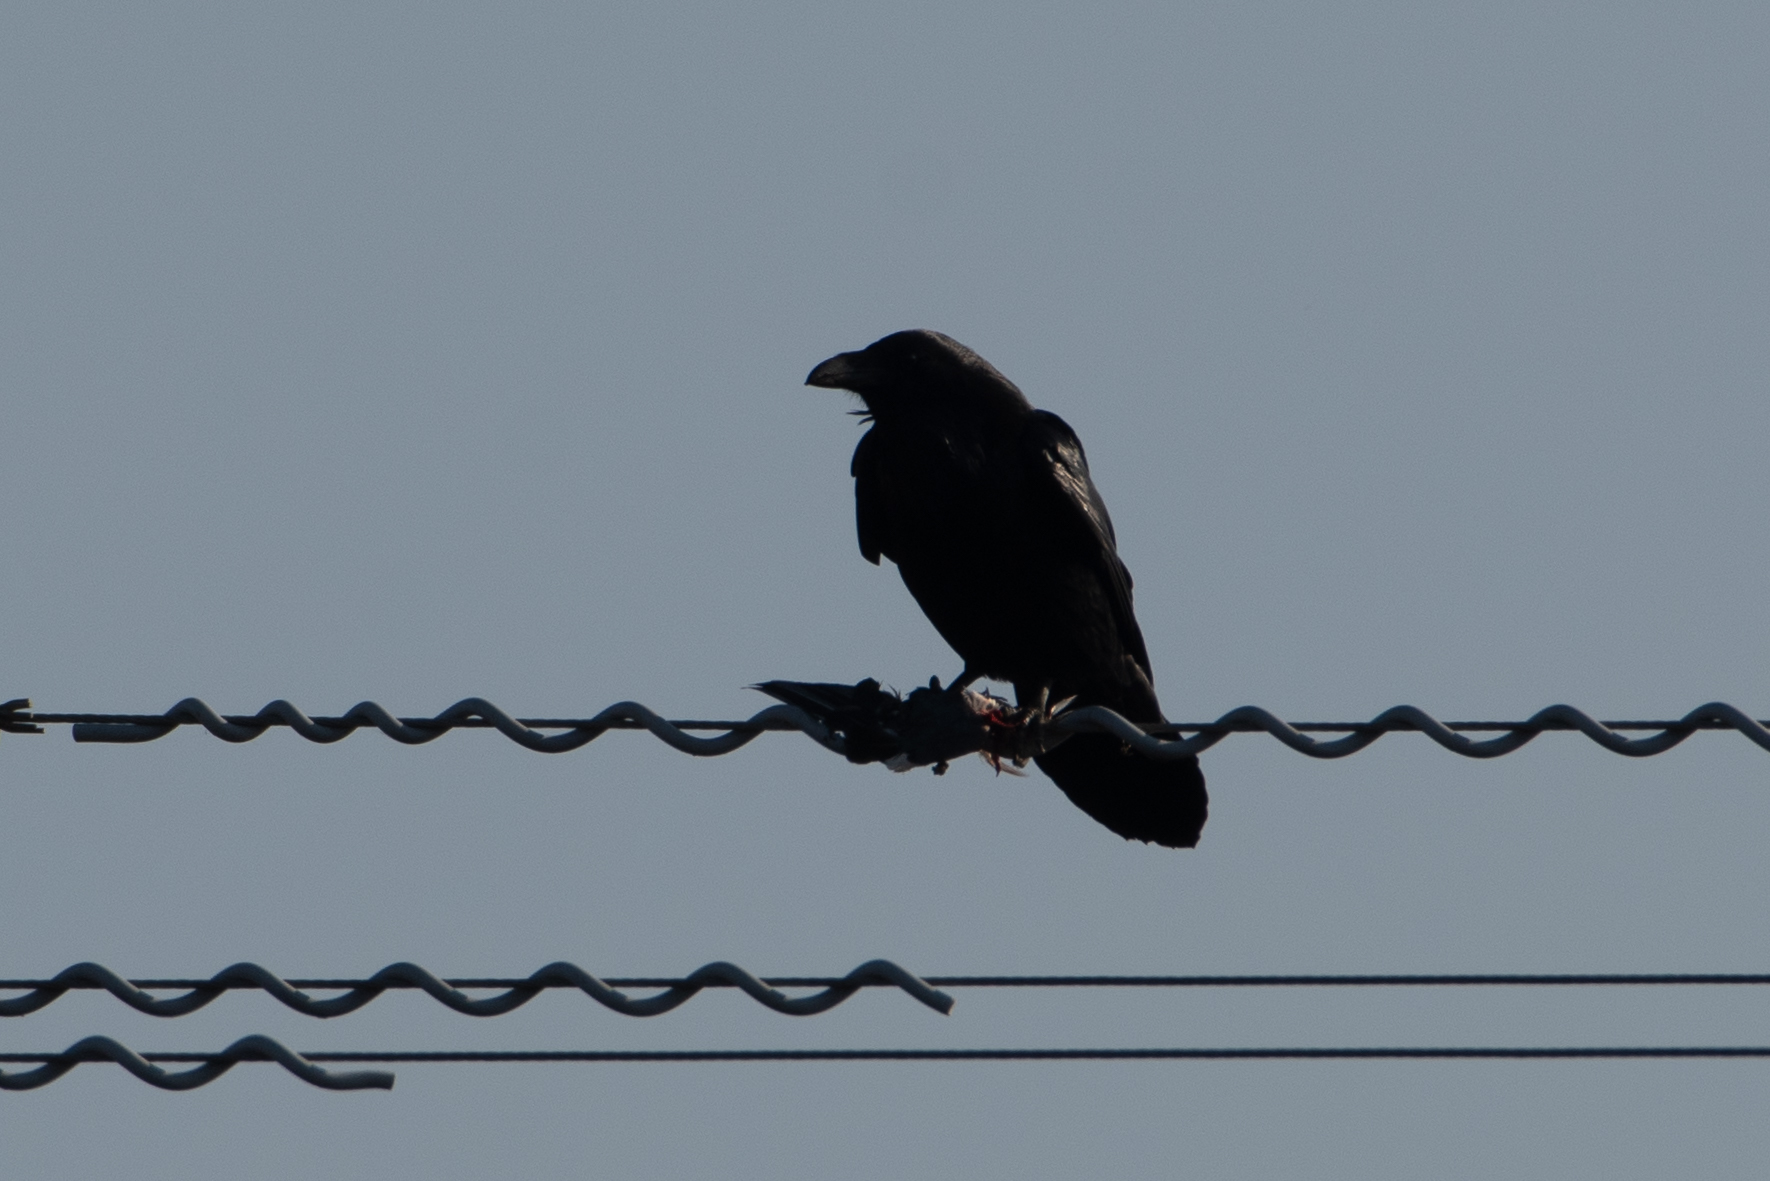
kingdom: Animalia
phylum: Chordata
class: Aves
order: Passeriformes
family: Corvidae
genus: Corvus
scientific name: Corvus corax
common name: Common raven
